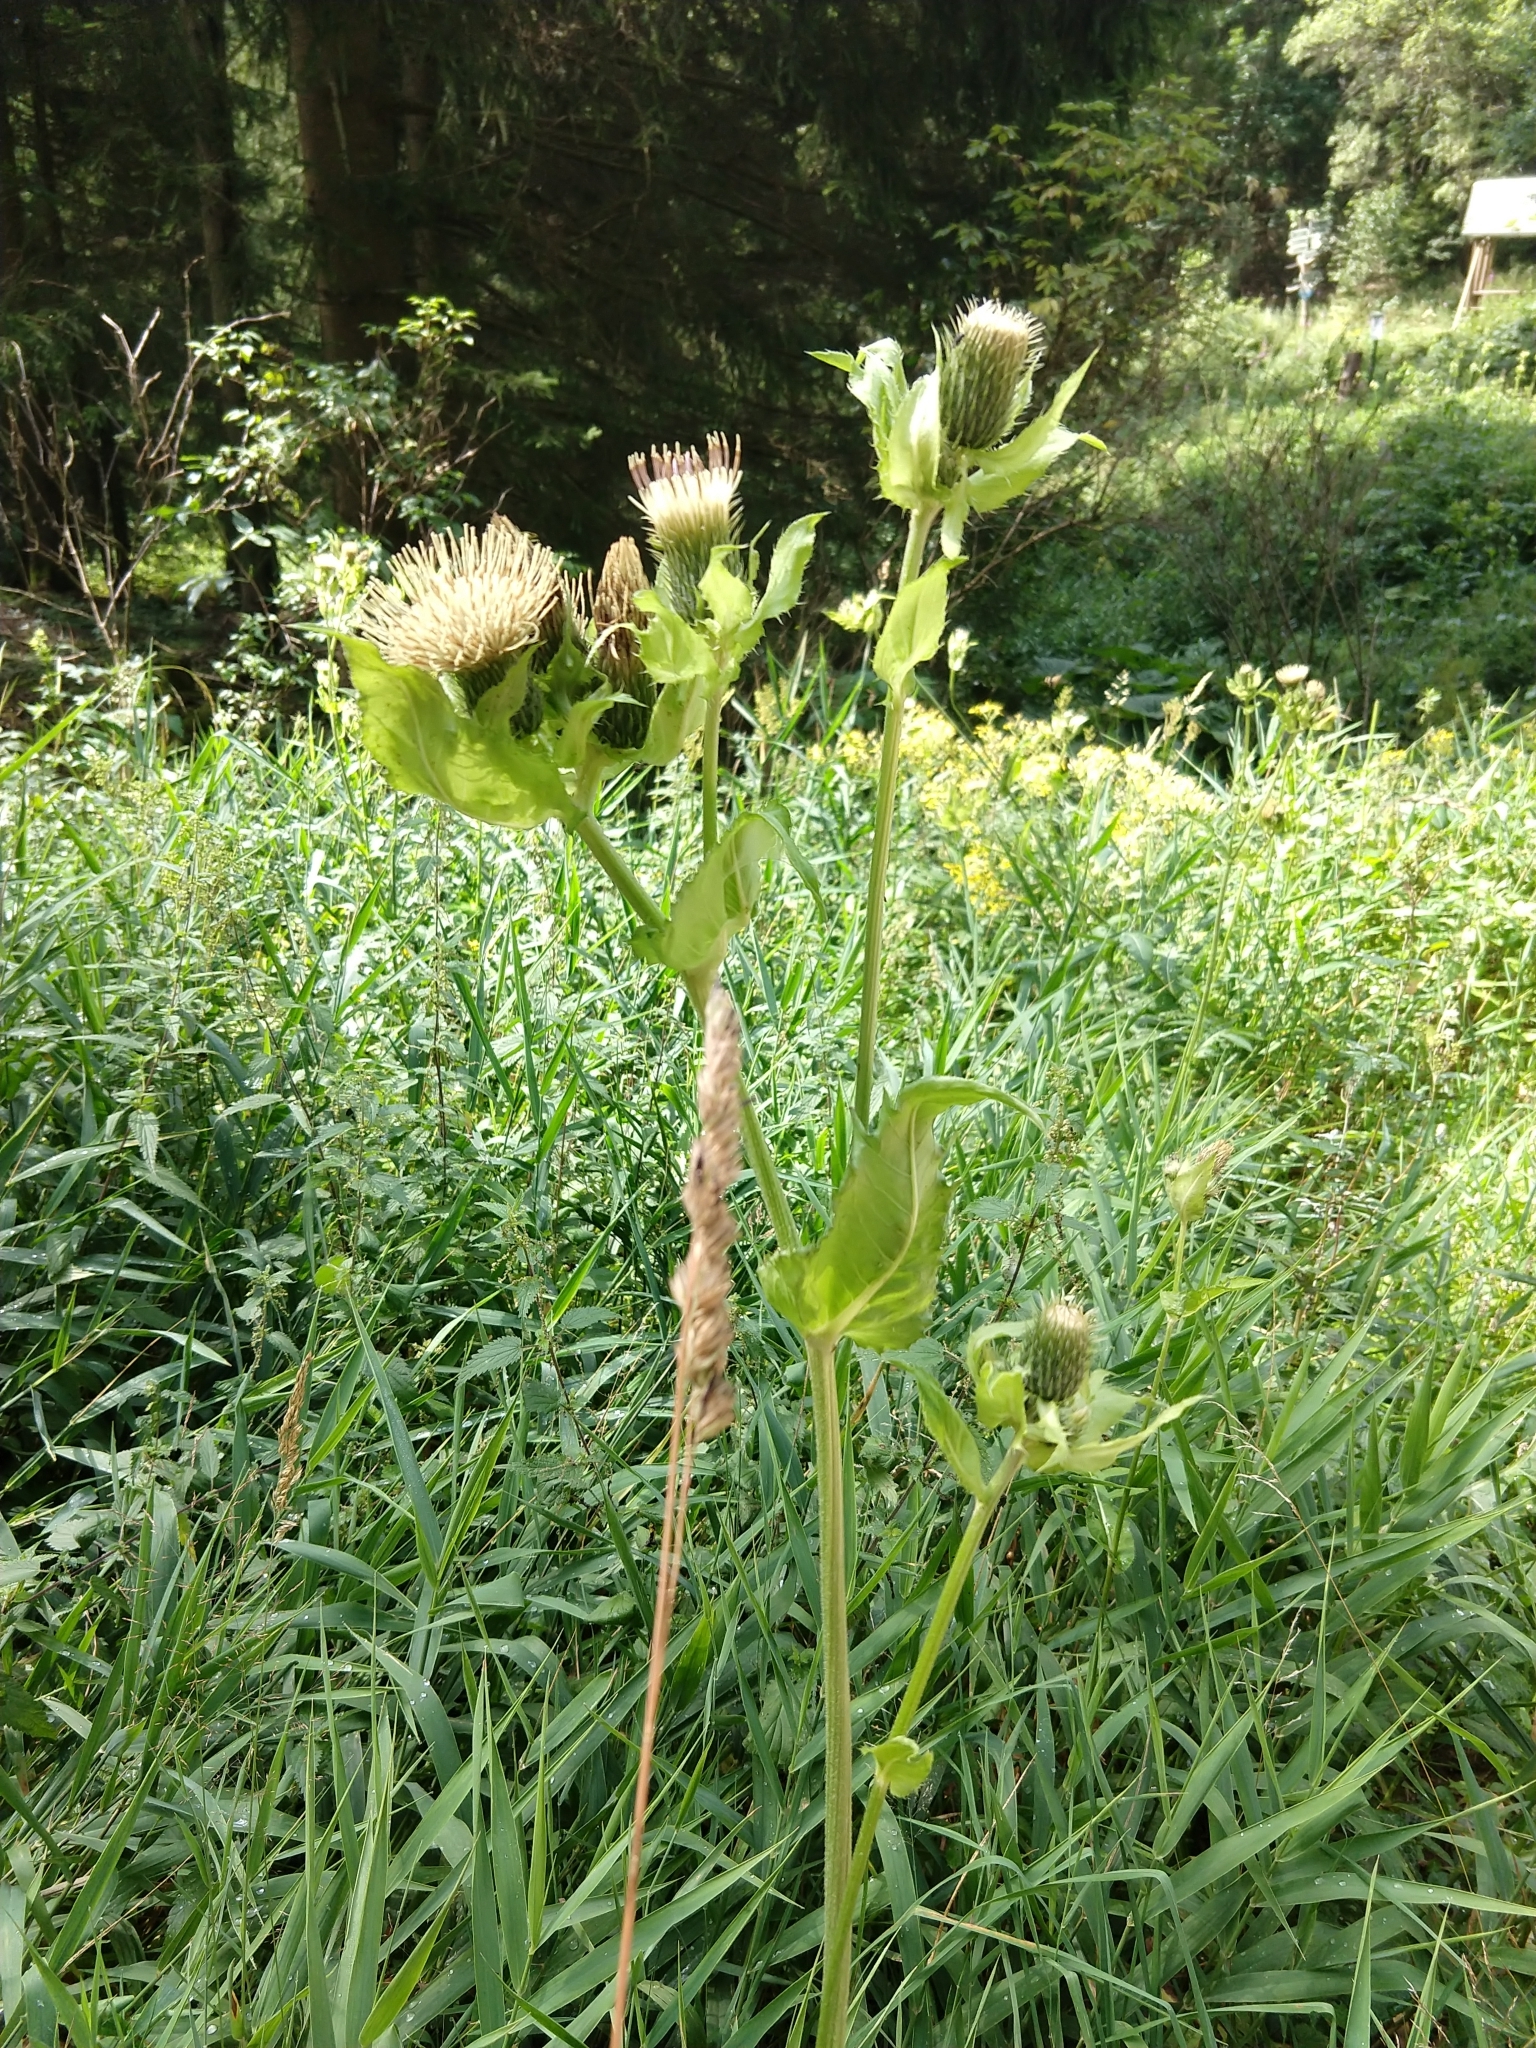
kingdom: Plantae
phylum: Tracheophyta
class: Magnoliopsida
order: Asterales
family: Asteraceae
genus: Cirsium
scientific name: Cirsium oleraceum
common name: Cabbage thistle
